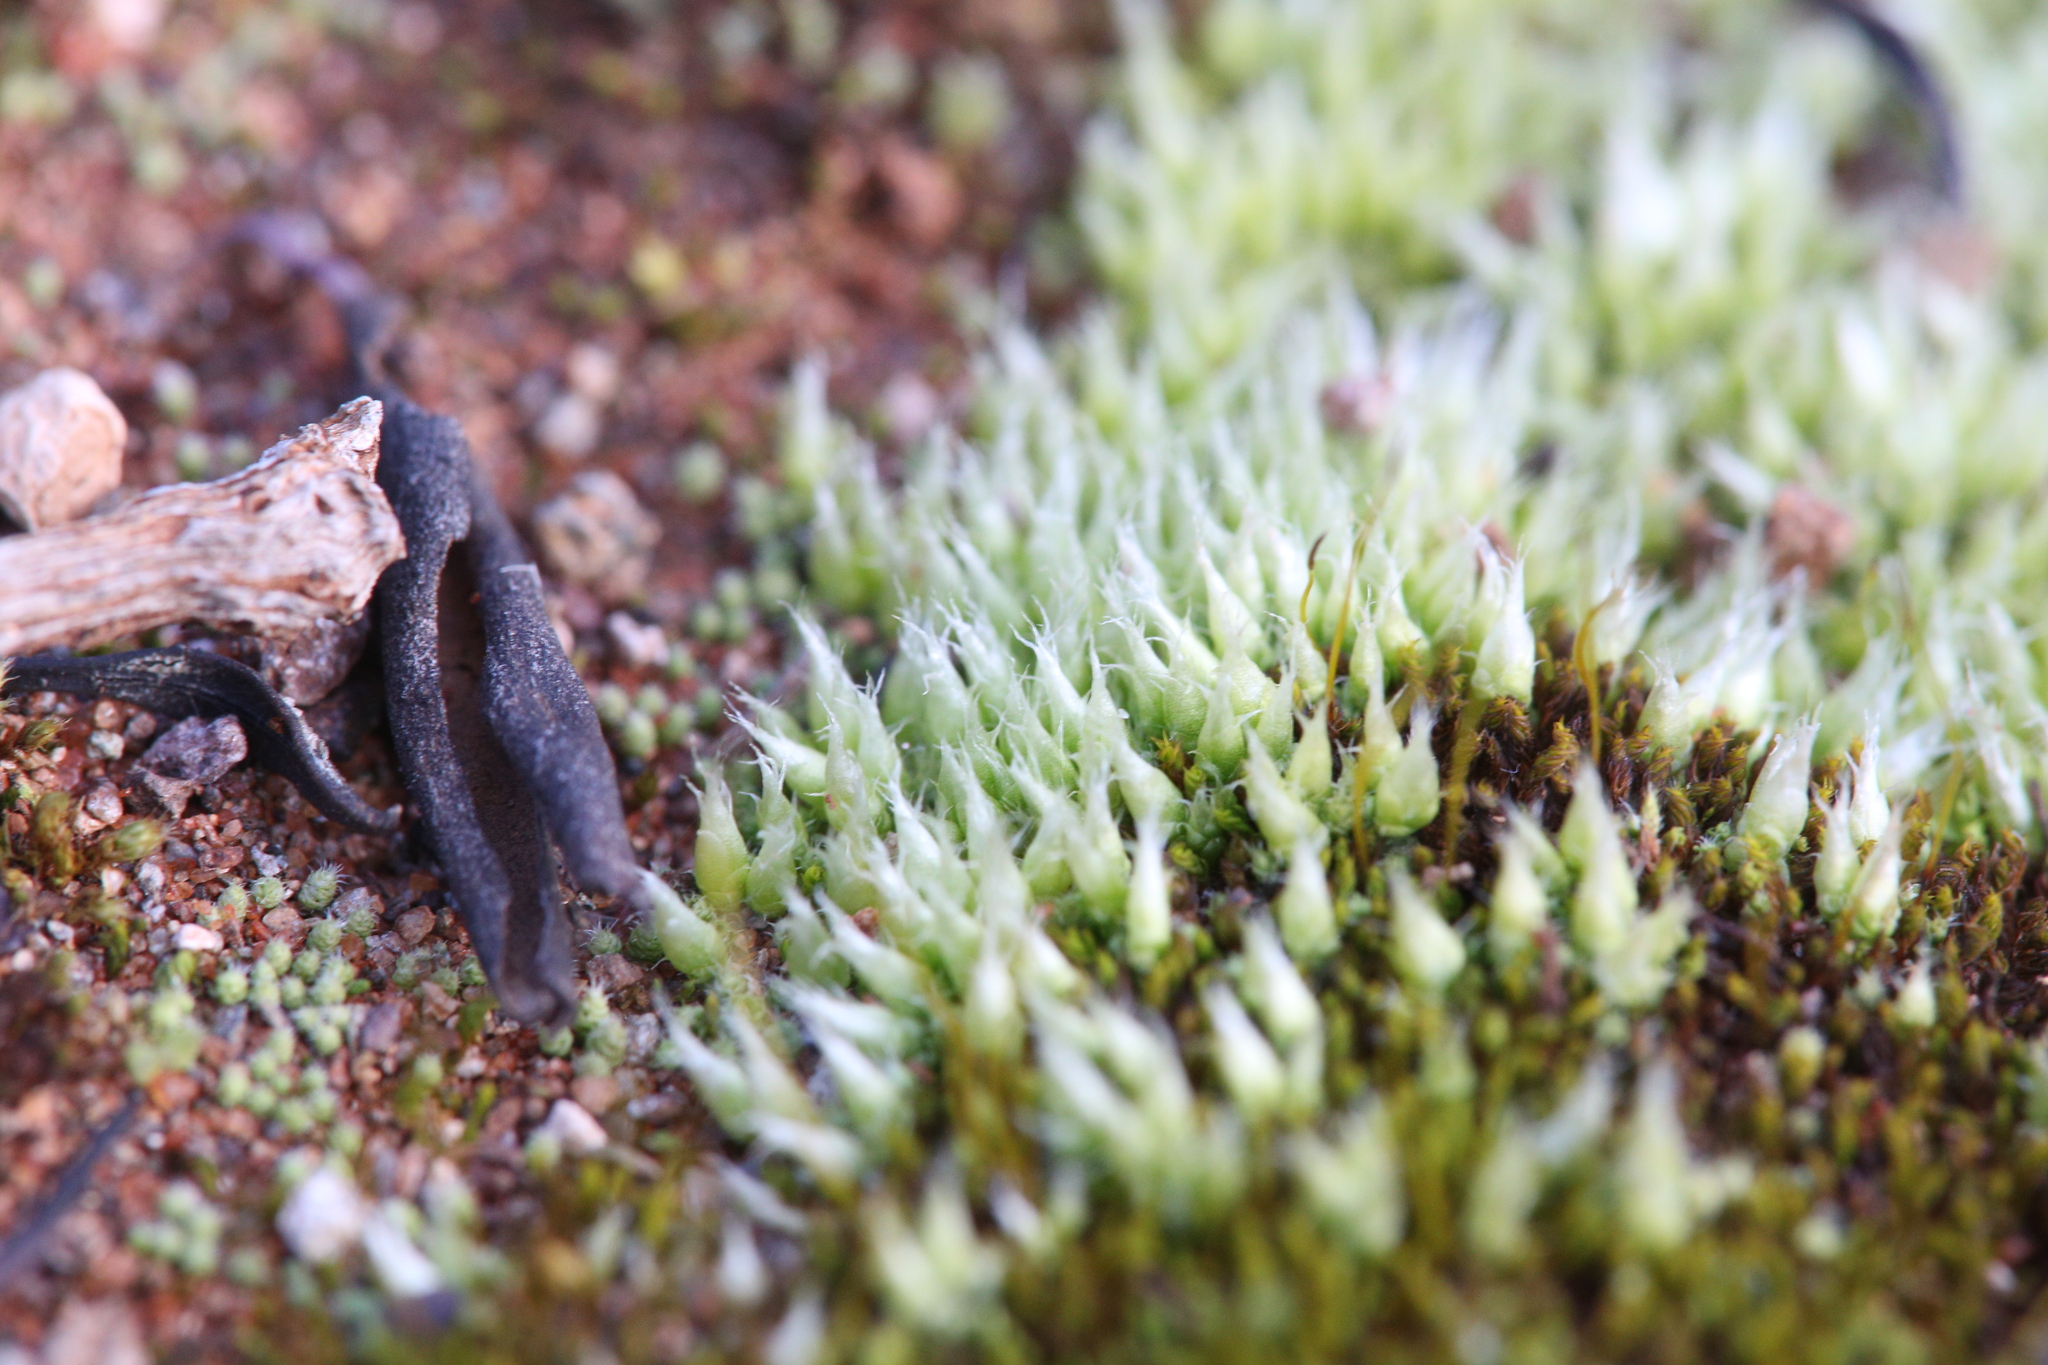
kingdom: Plantae
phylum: Bryophyta
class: Bryopsida
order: Gigaspermales
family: Gigaspermaceae
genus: Gigaspermum
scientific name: Gigaspermum repens
